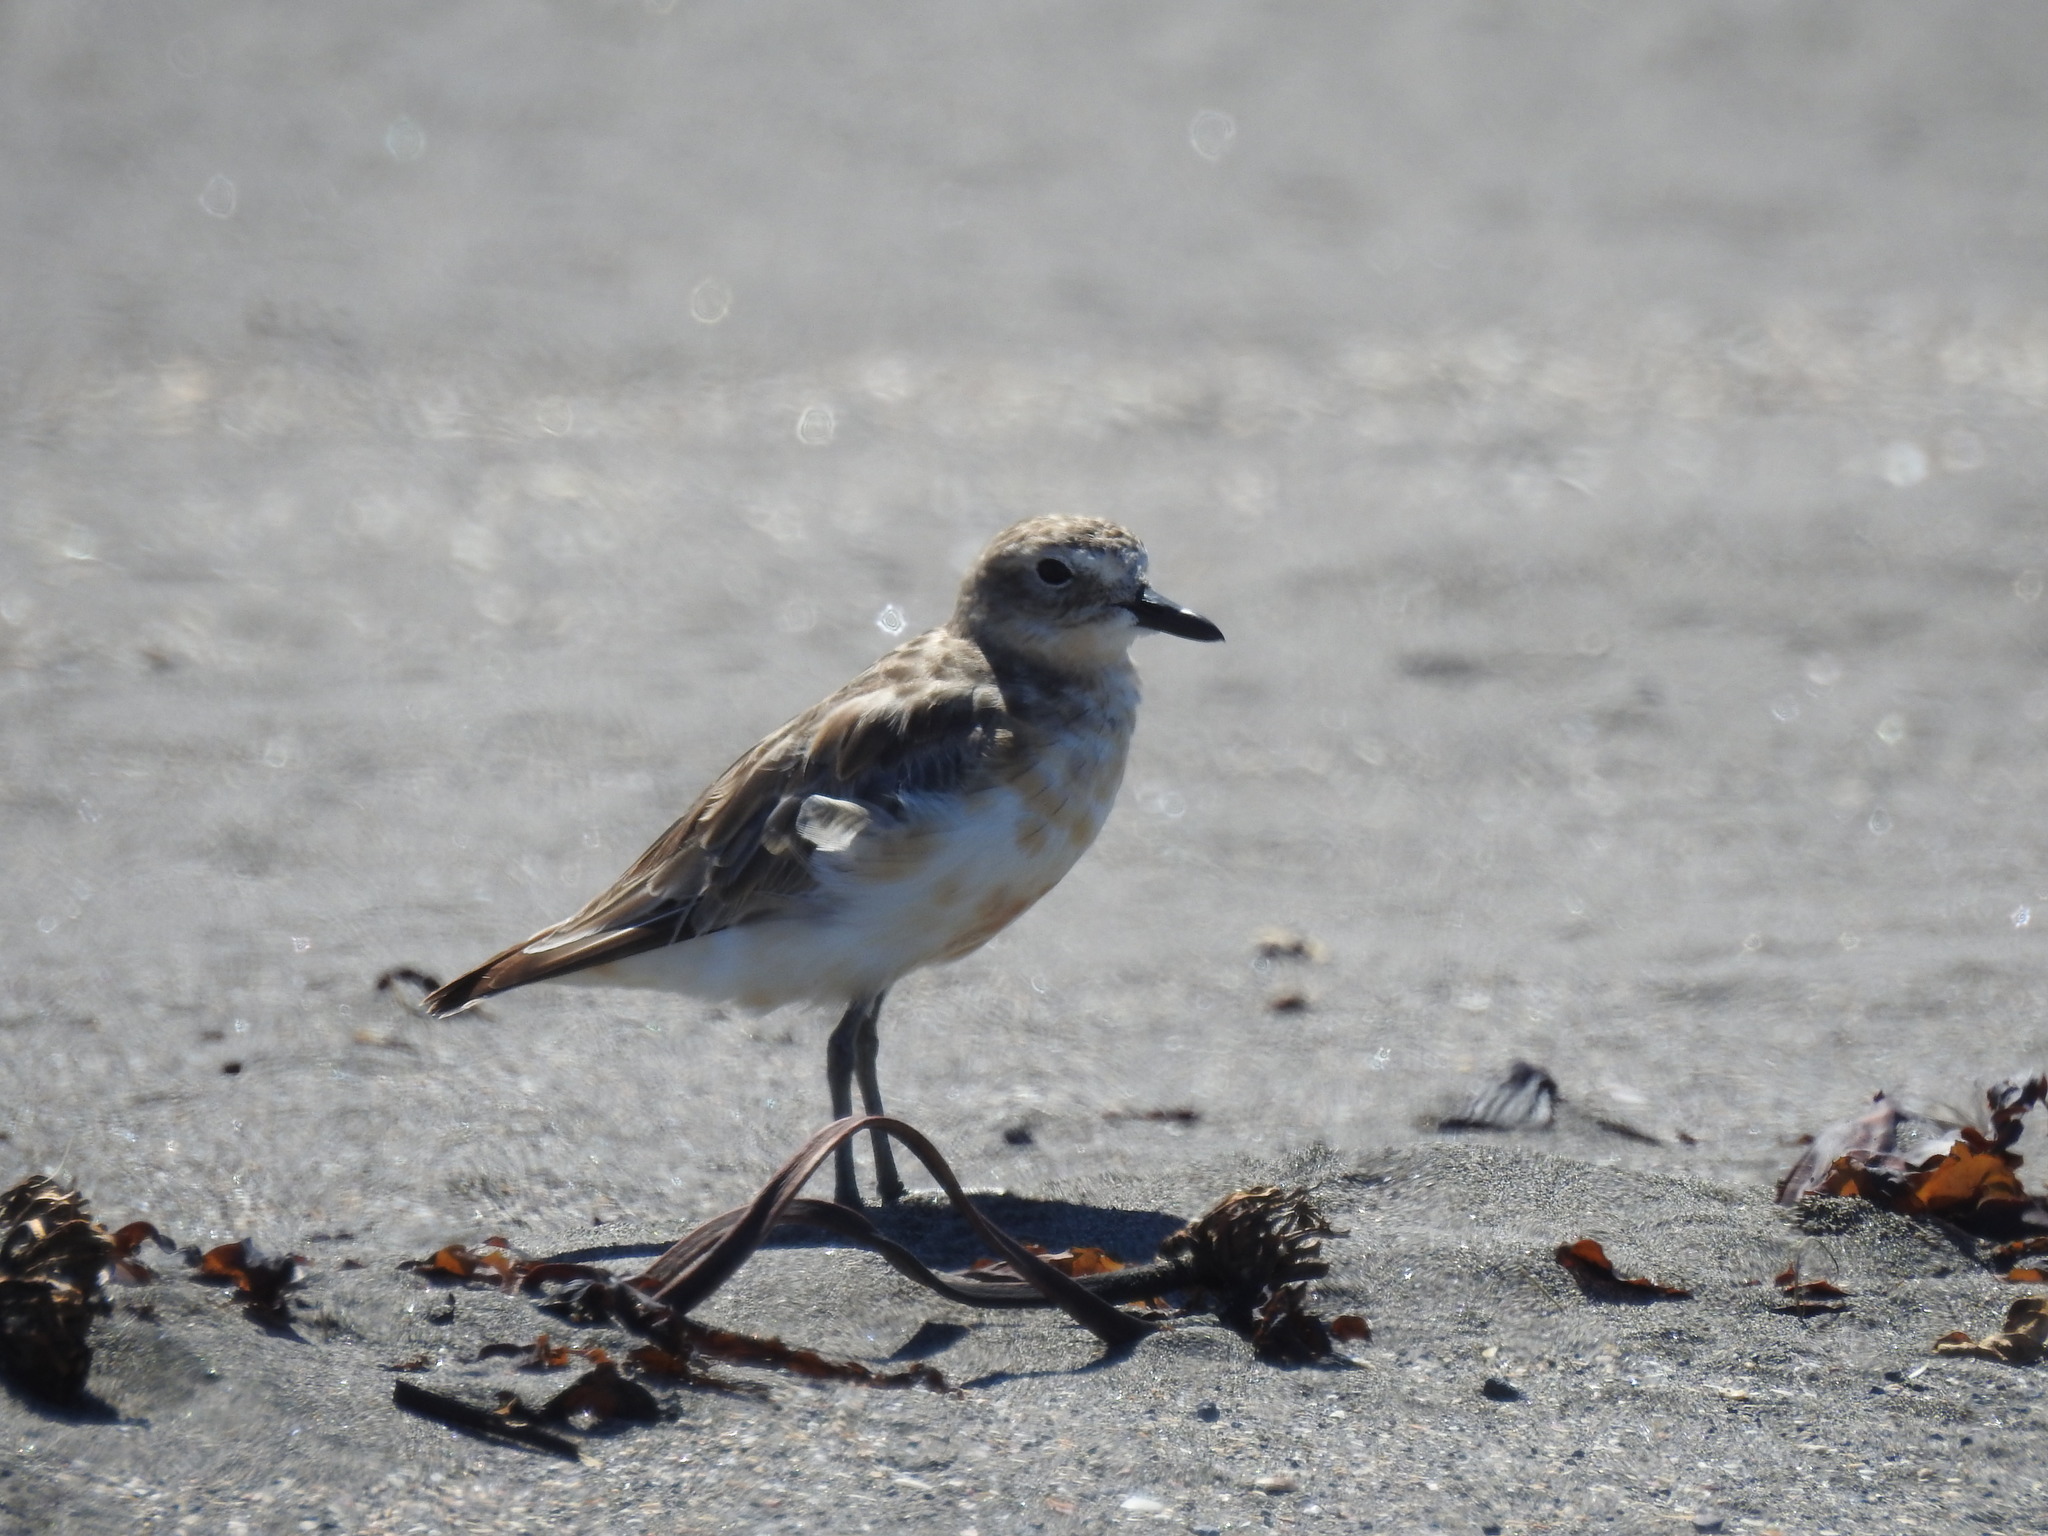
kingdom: Animalia
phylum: Chordata
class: Aves
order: Charadriiformes
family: Charadriidae
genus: Anarhynchus
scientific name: Anarhynchus
